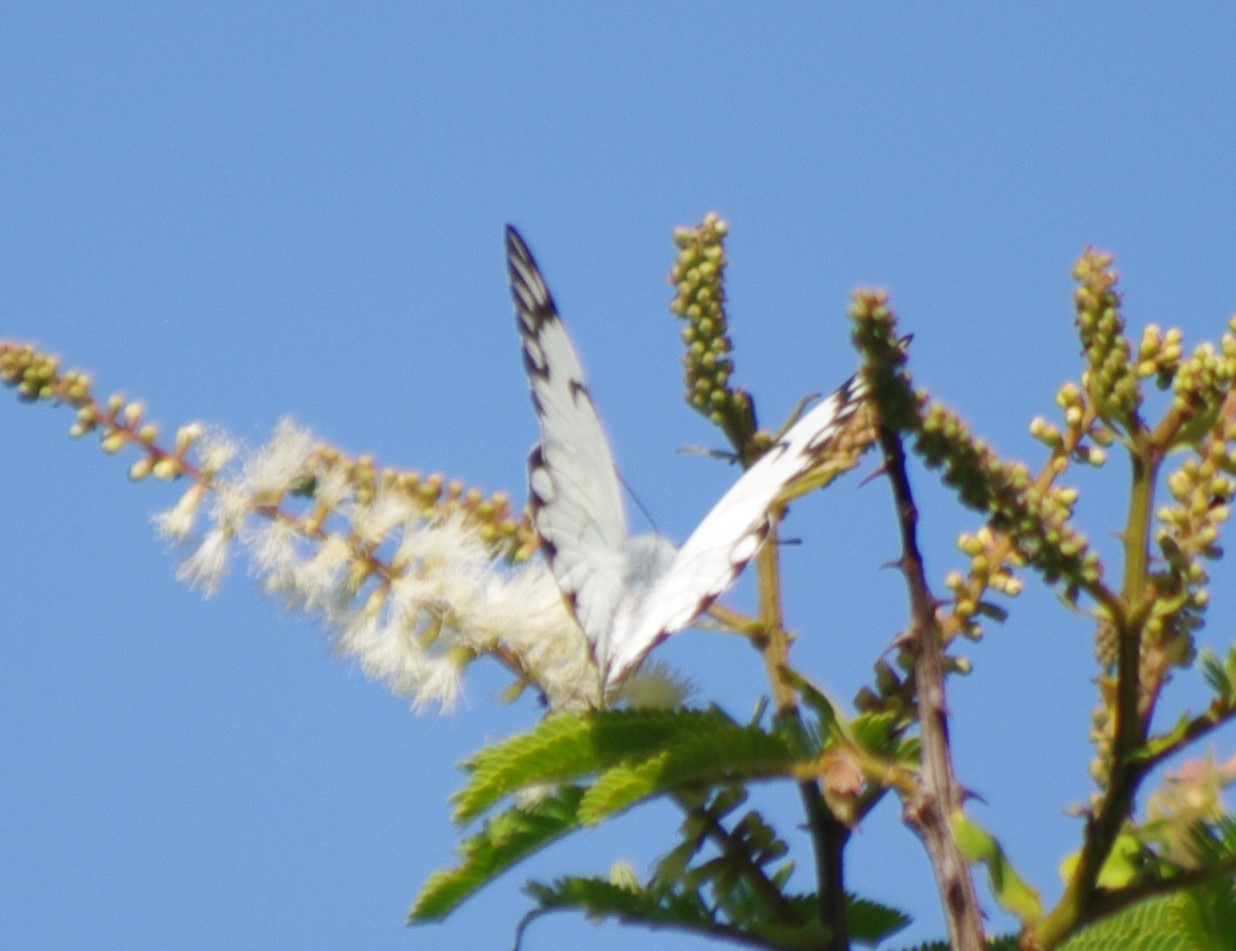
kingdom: Animalia
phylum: Arthropoda
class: Insecta
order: Lepidoptera
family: Pieridae
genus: Belenois
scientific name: Belenois aurota
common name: Brown-veined white
